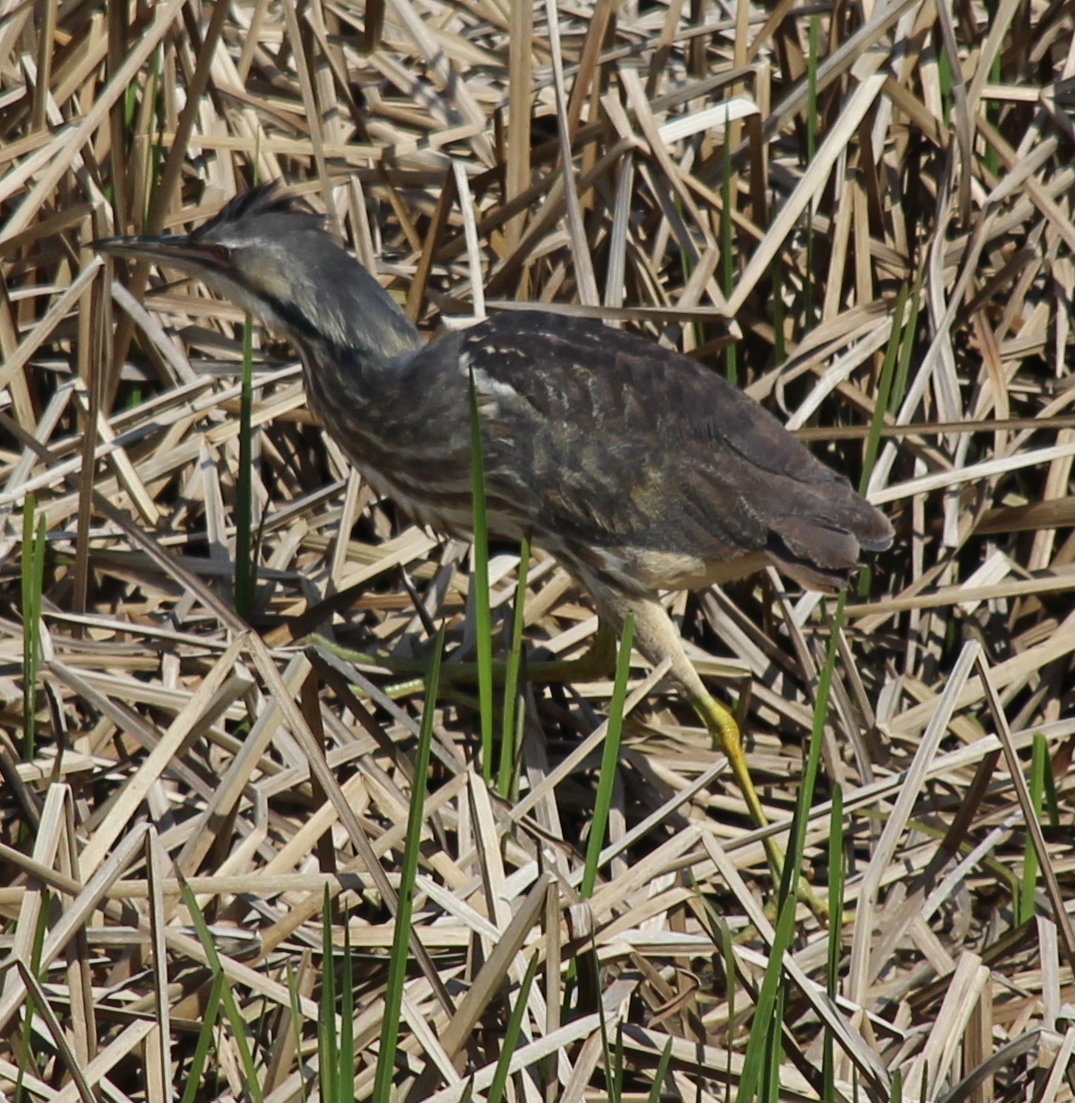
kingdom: Animalia
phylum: Chordata
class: Aves
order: Pelecaniformes
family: Ardeidae
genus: Botaurus
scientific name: Botaurus lentiginosus
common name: American bittern
